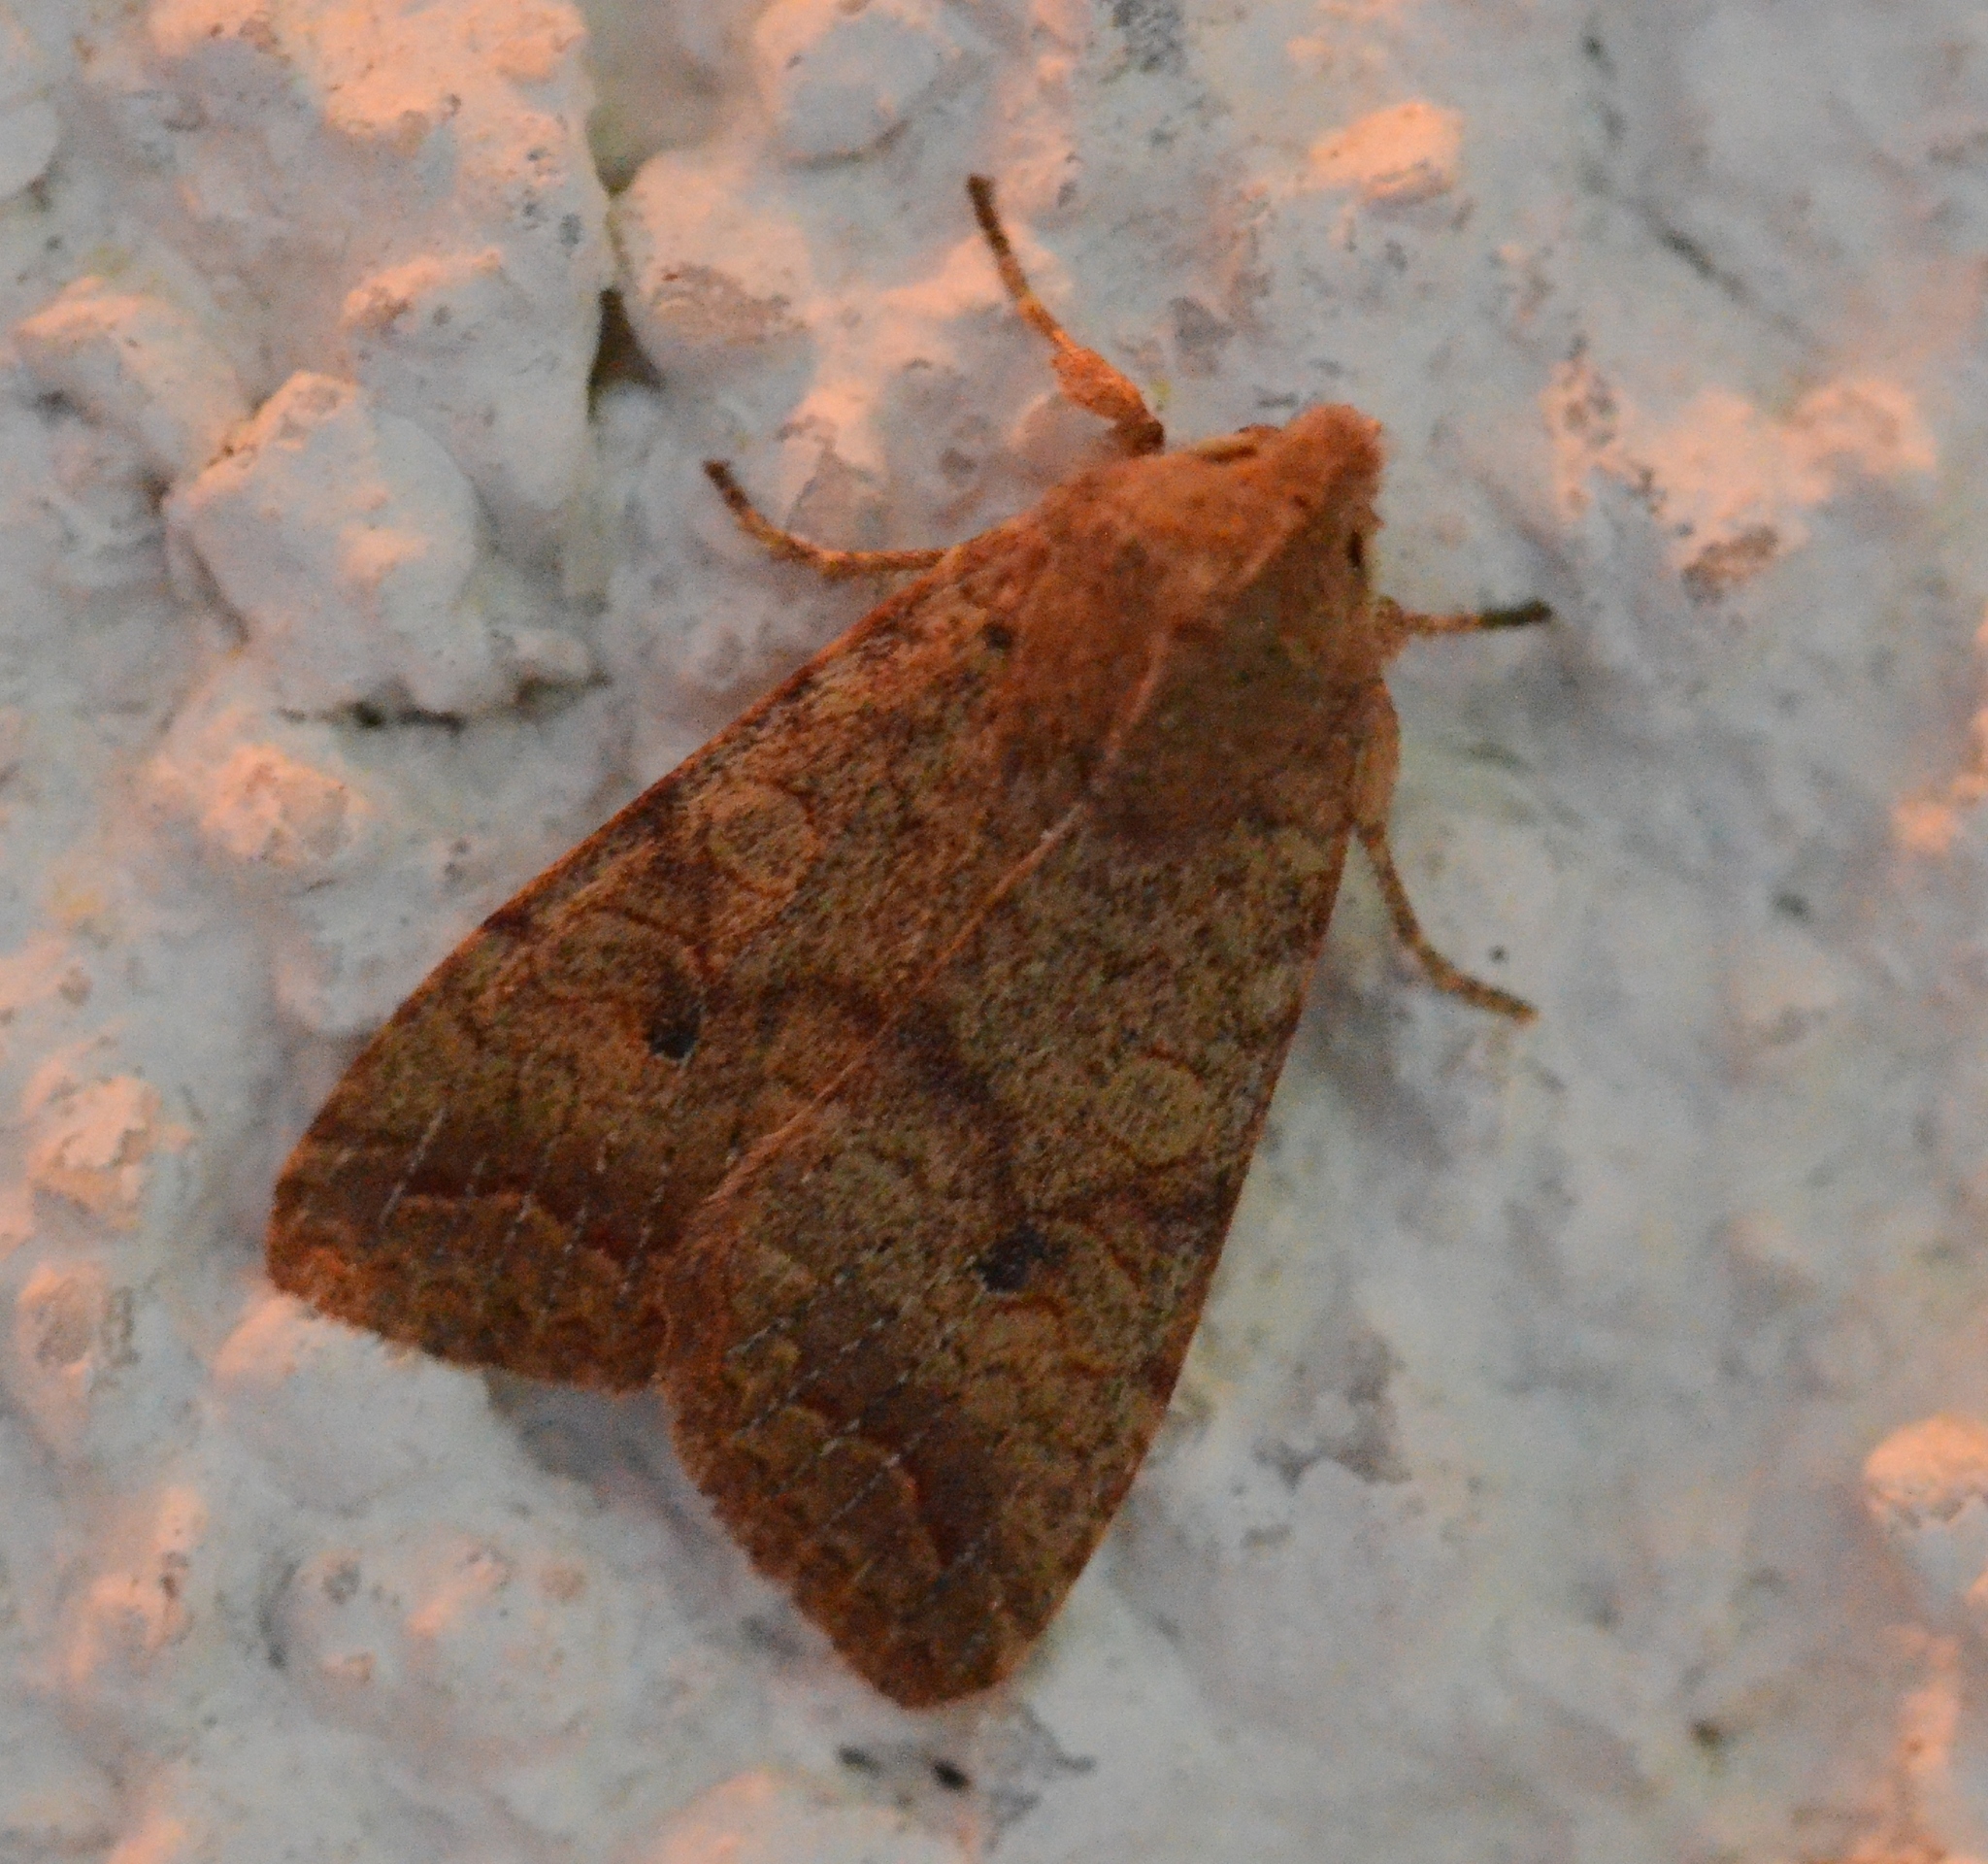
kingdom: Animalia
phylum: Arthropoda
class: Insecta
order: Lepidoptera
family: Noctuidae
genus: Sunira
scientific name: Sunira circellaris
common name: Brick
